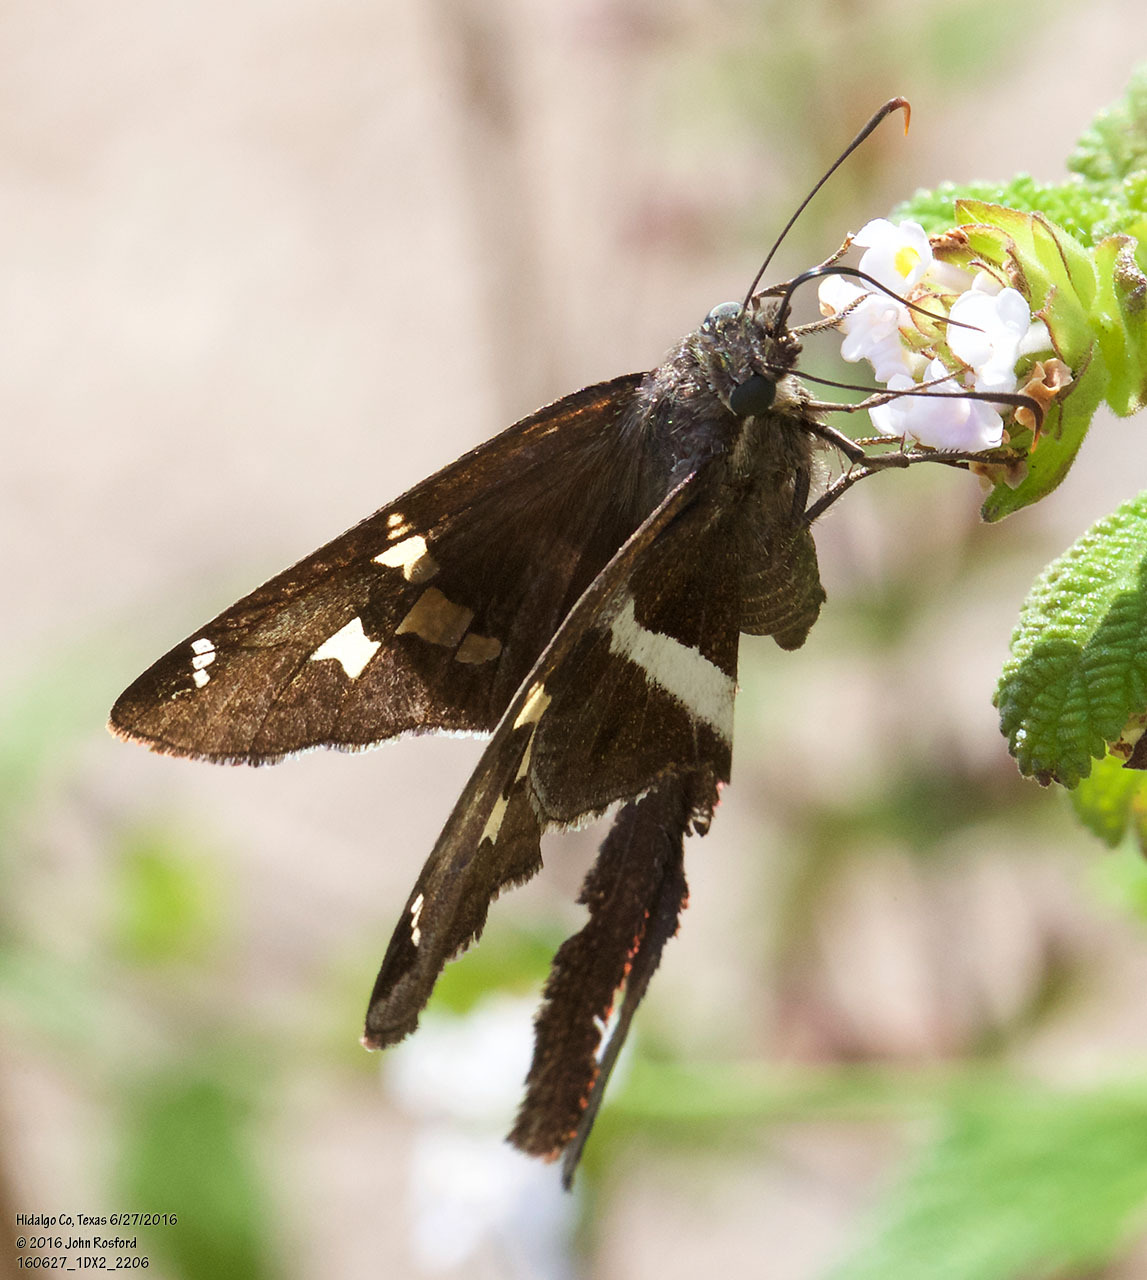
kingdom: Animalia
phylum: Arthropoda
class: Insecta
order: Lepidoptera
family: Hesperiidae
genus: Chioides
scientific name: Chioides catillus
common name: Silverbanded skipper
